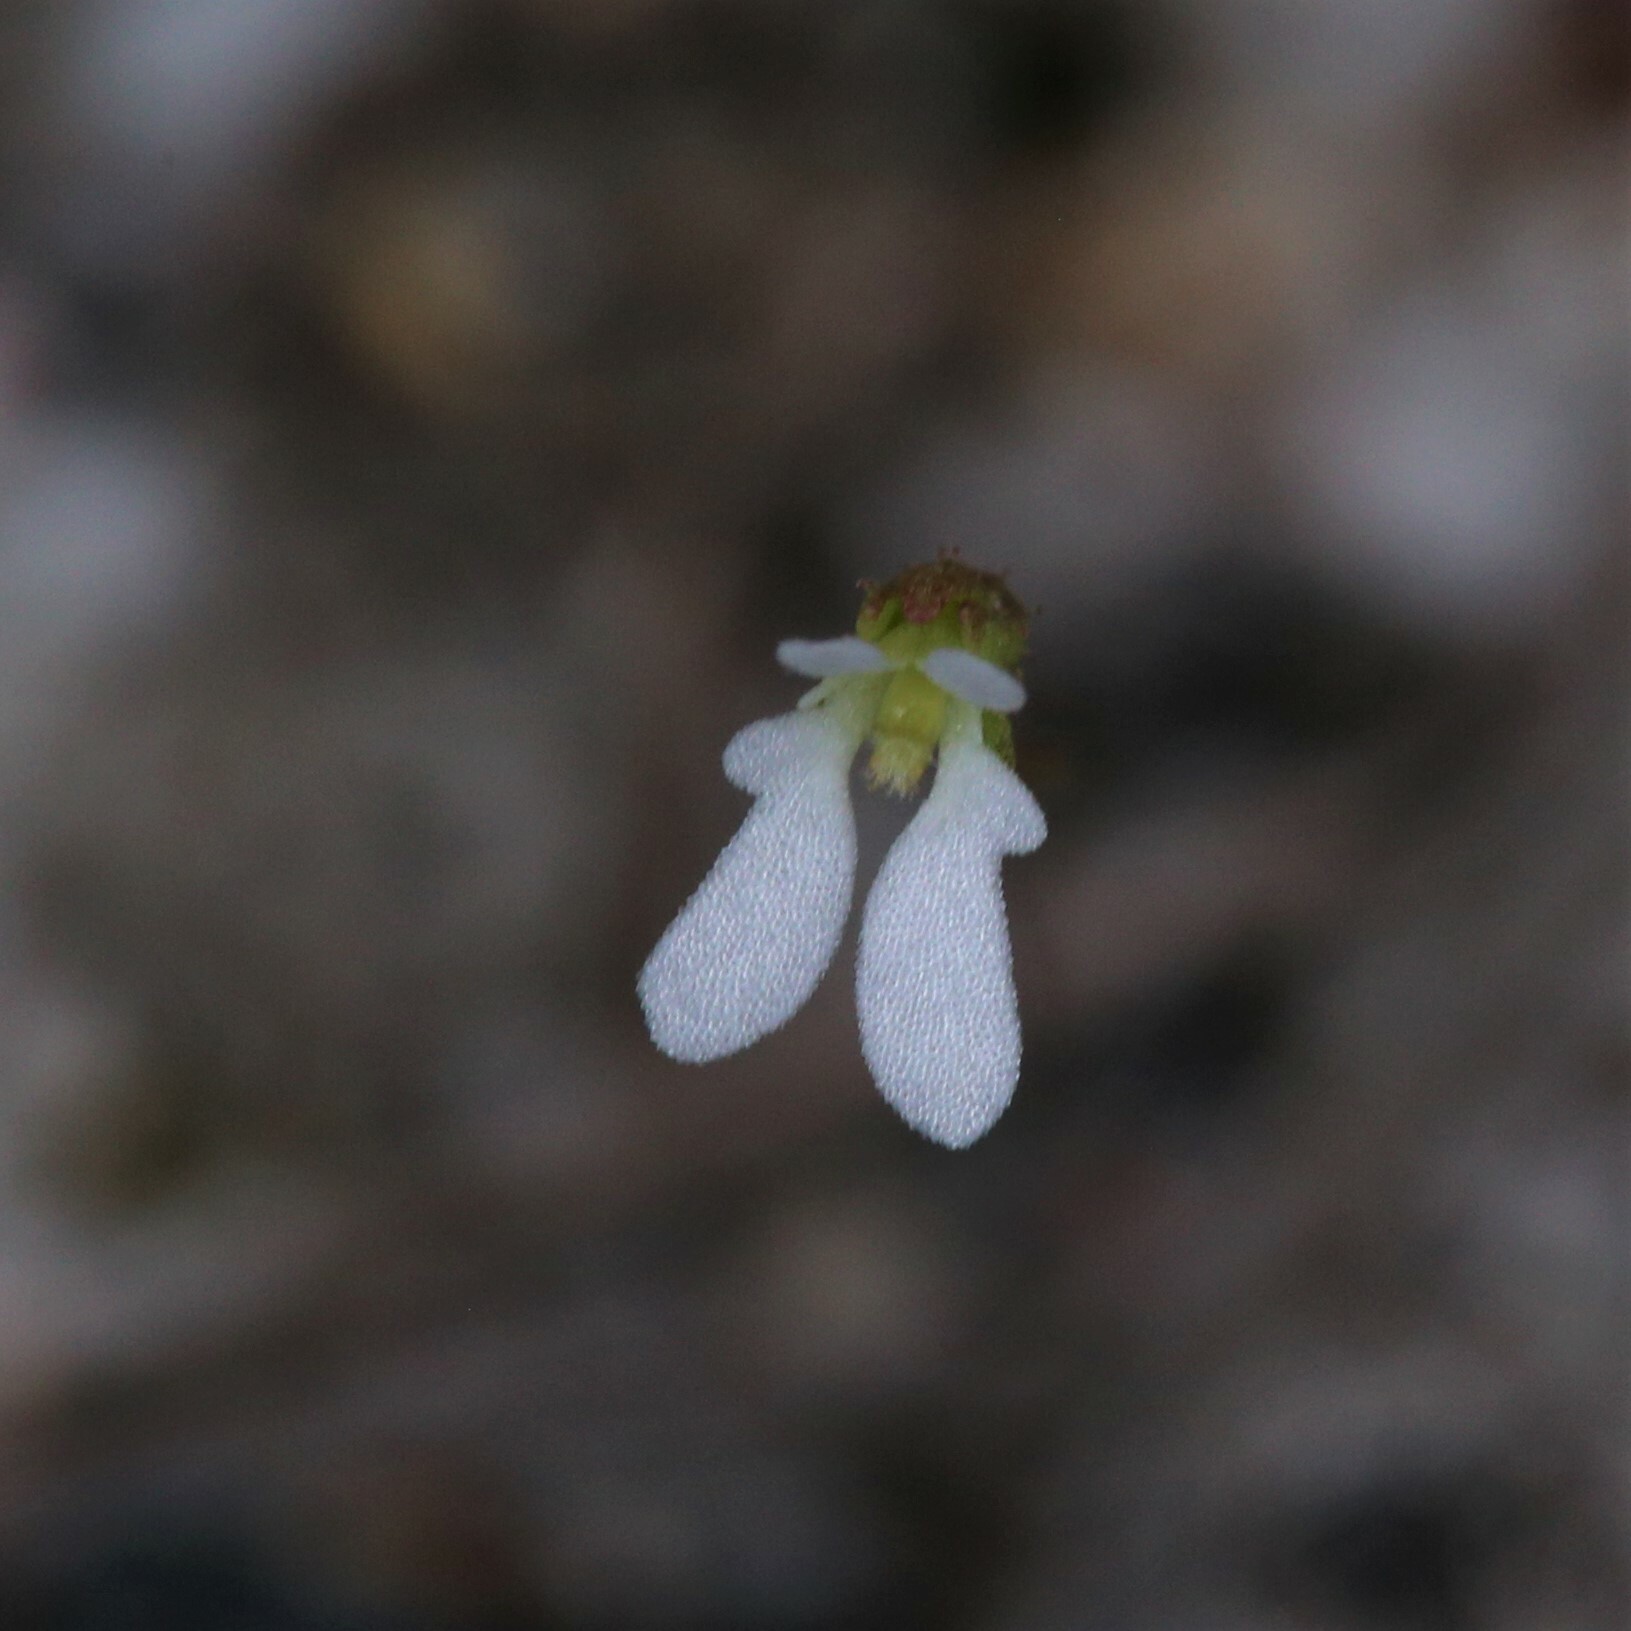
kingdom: Plantae
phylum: Tracheophyta
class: Magnoliopsida
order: Asterales
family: Stylidiaceae
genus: Stylidium
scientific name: Stylidium perpusillum
